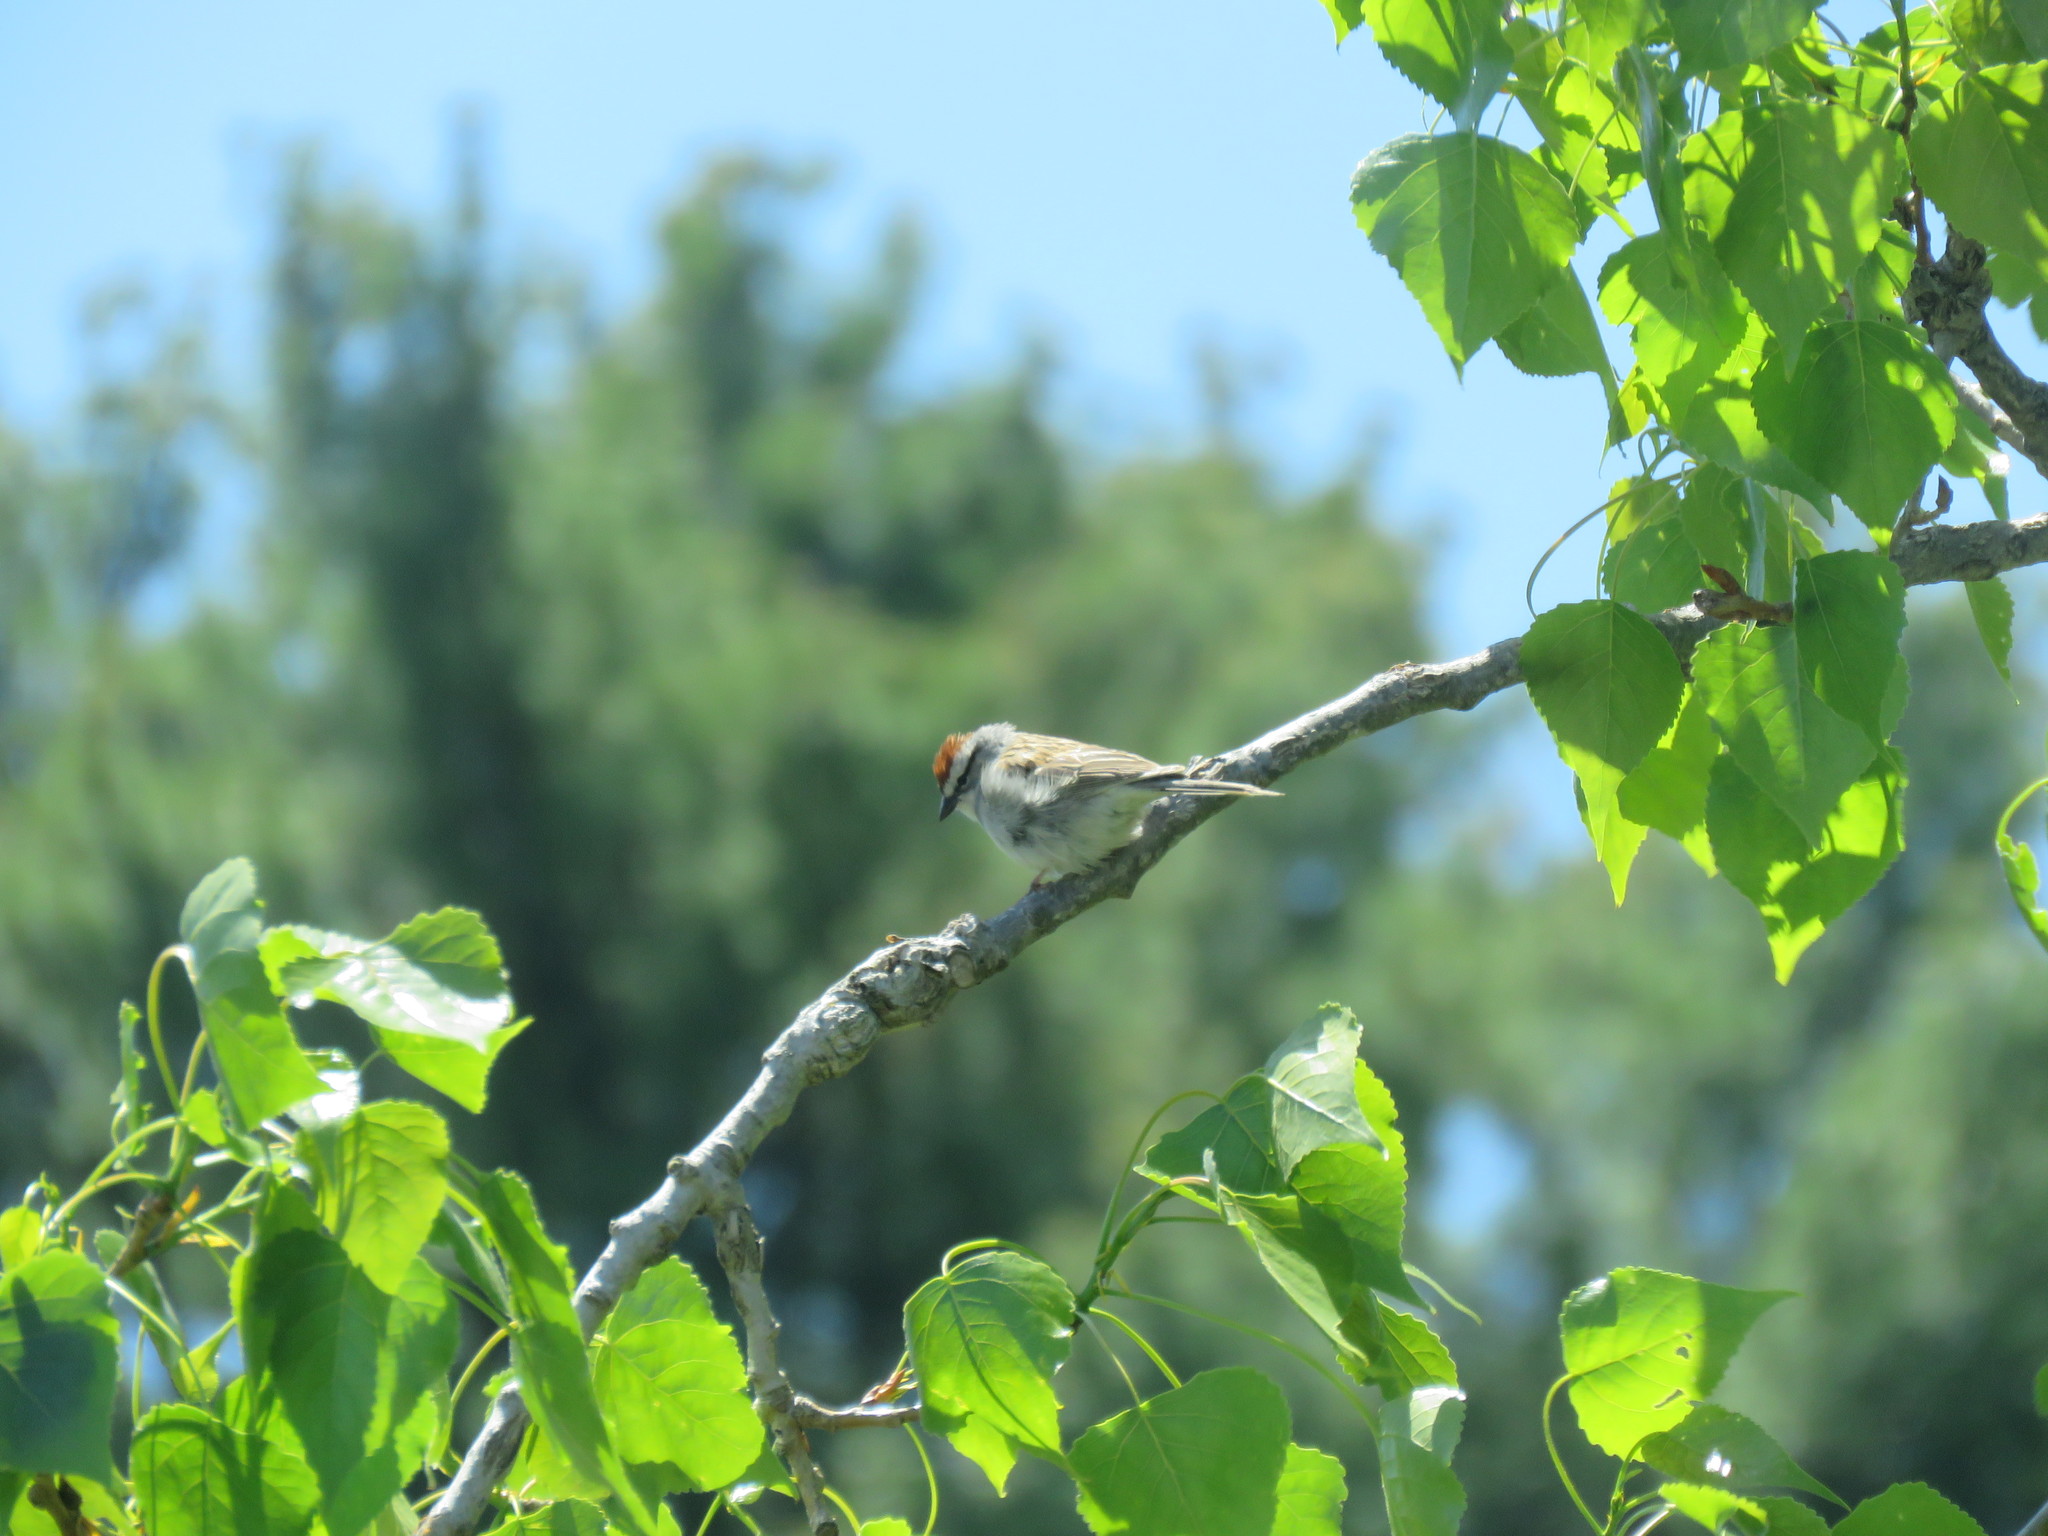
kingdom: Animalia
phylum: Chordata
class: Aves
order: Passeriformes
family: Passerellidae
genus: Spizella
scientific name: Spizella passerina
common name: Chipping sparrow
